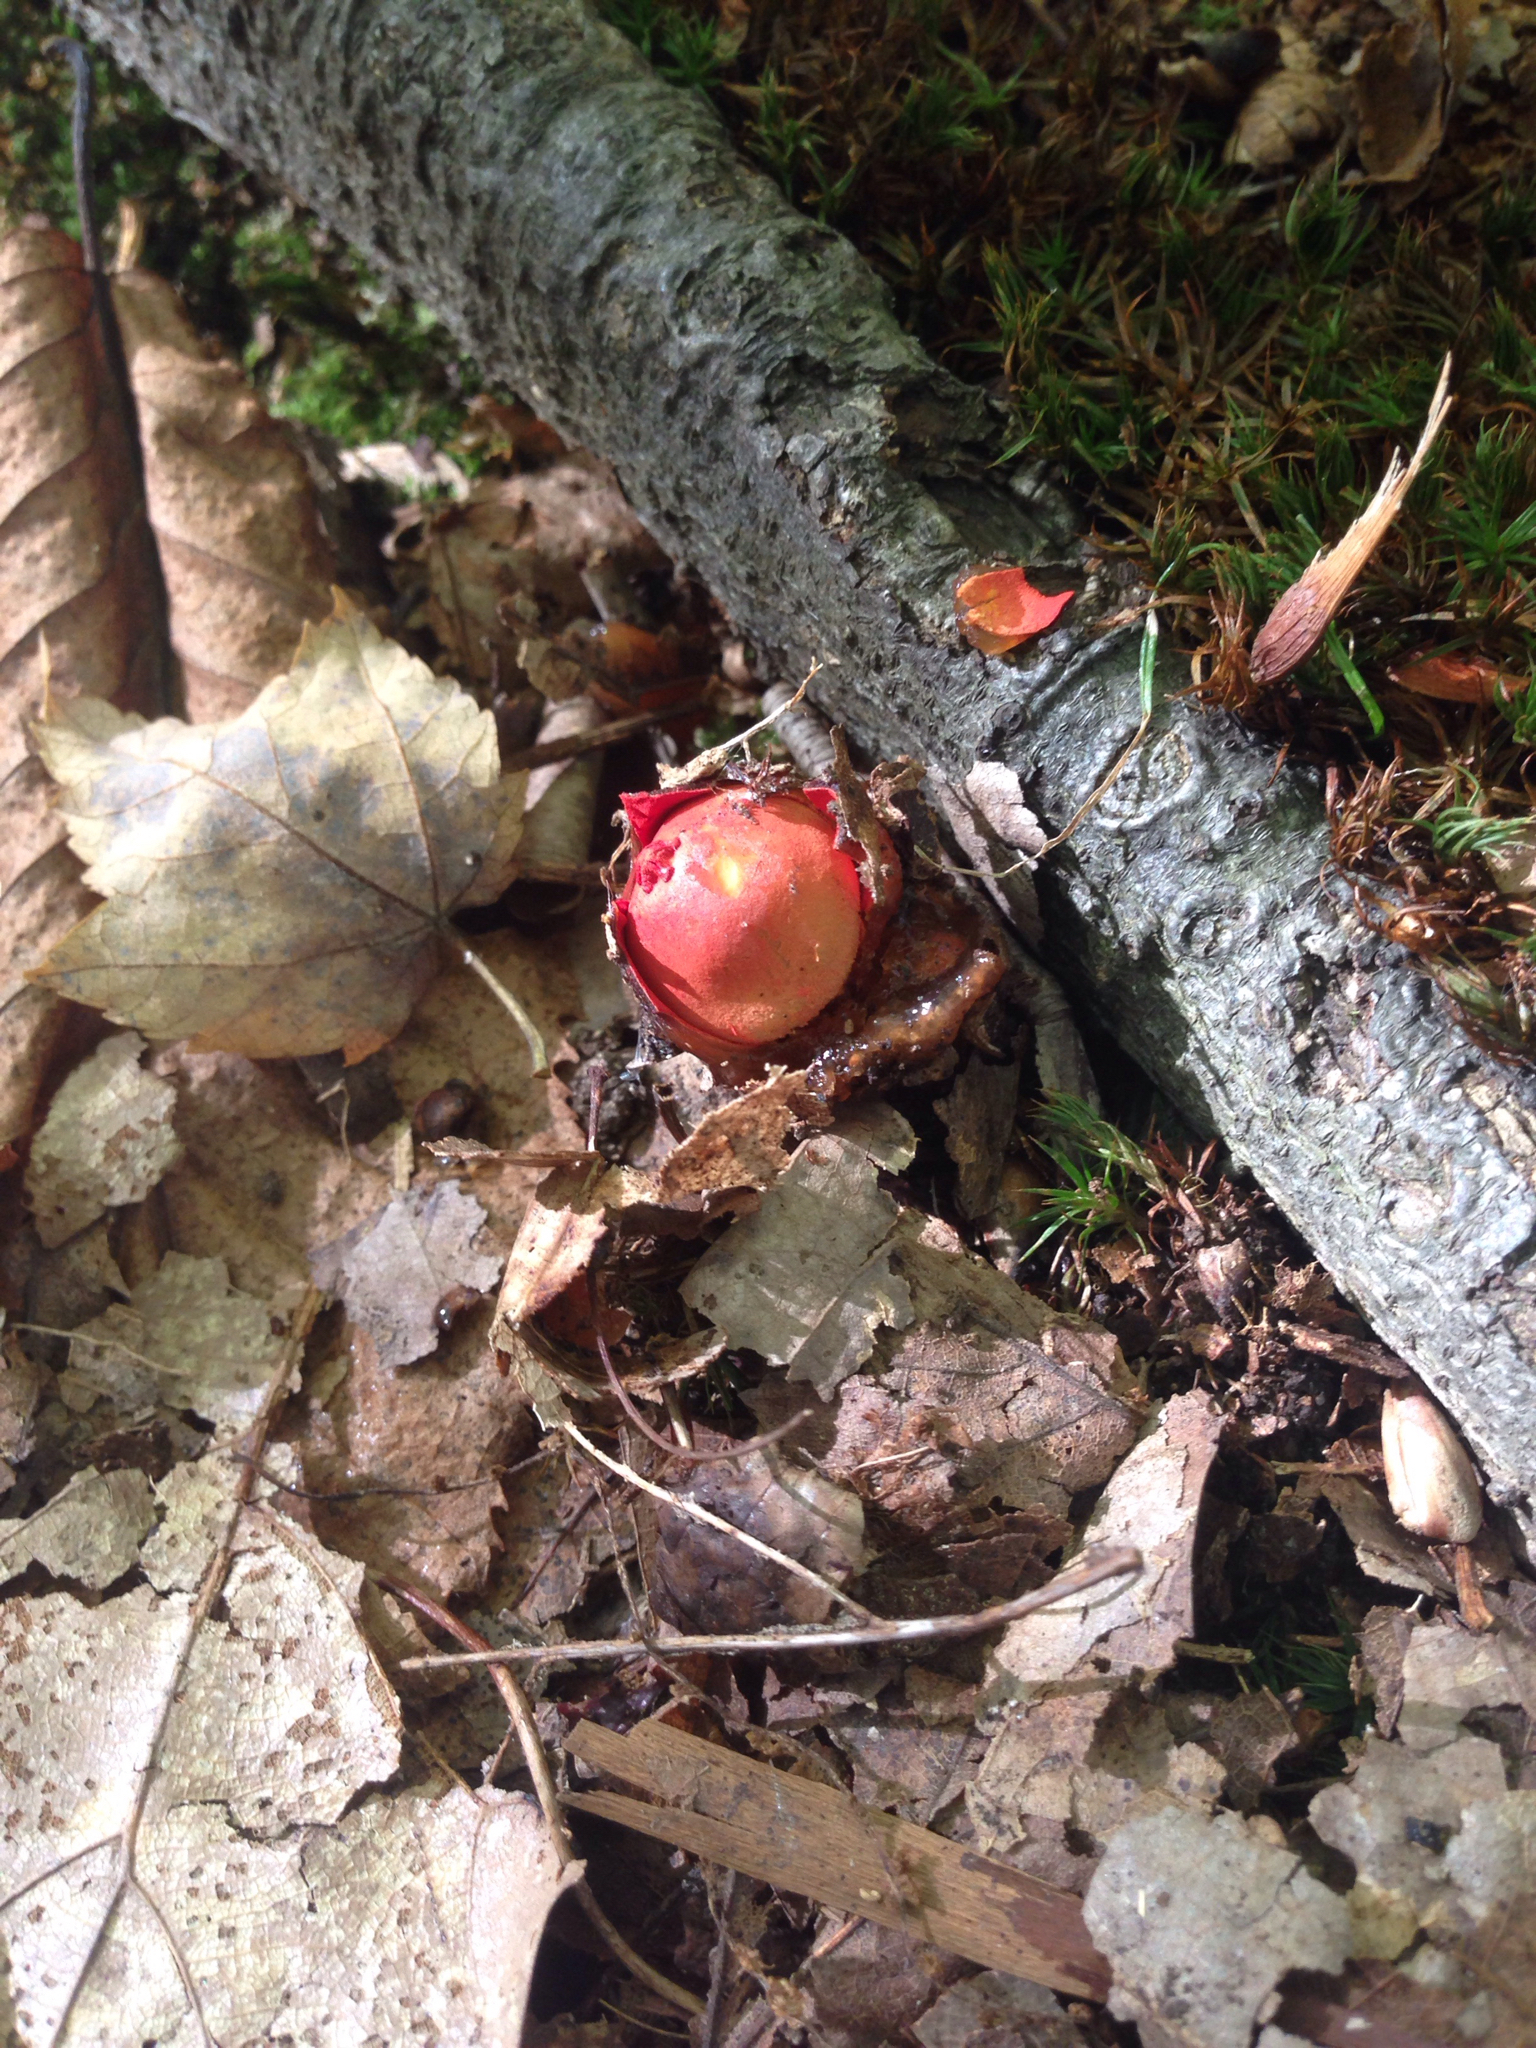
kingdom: Fungi
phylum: Basidiomycota
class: Agaricomycetes
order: Boletales
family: Calostomataceae
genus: Calostoma
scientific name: Calostoma cinnabarinum
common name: Stalked puffball-in-aspic
